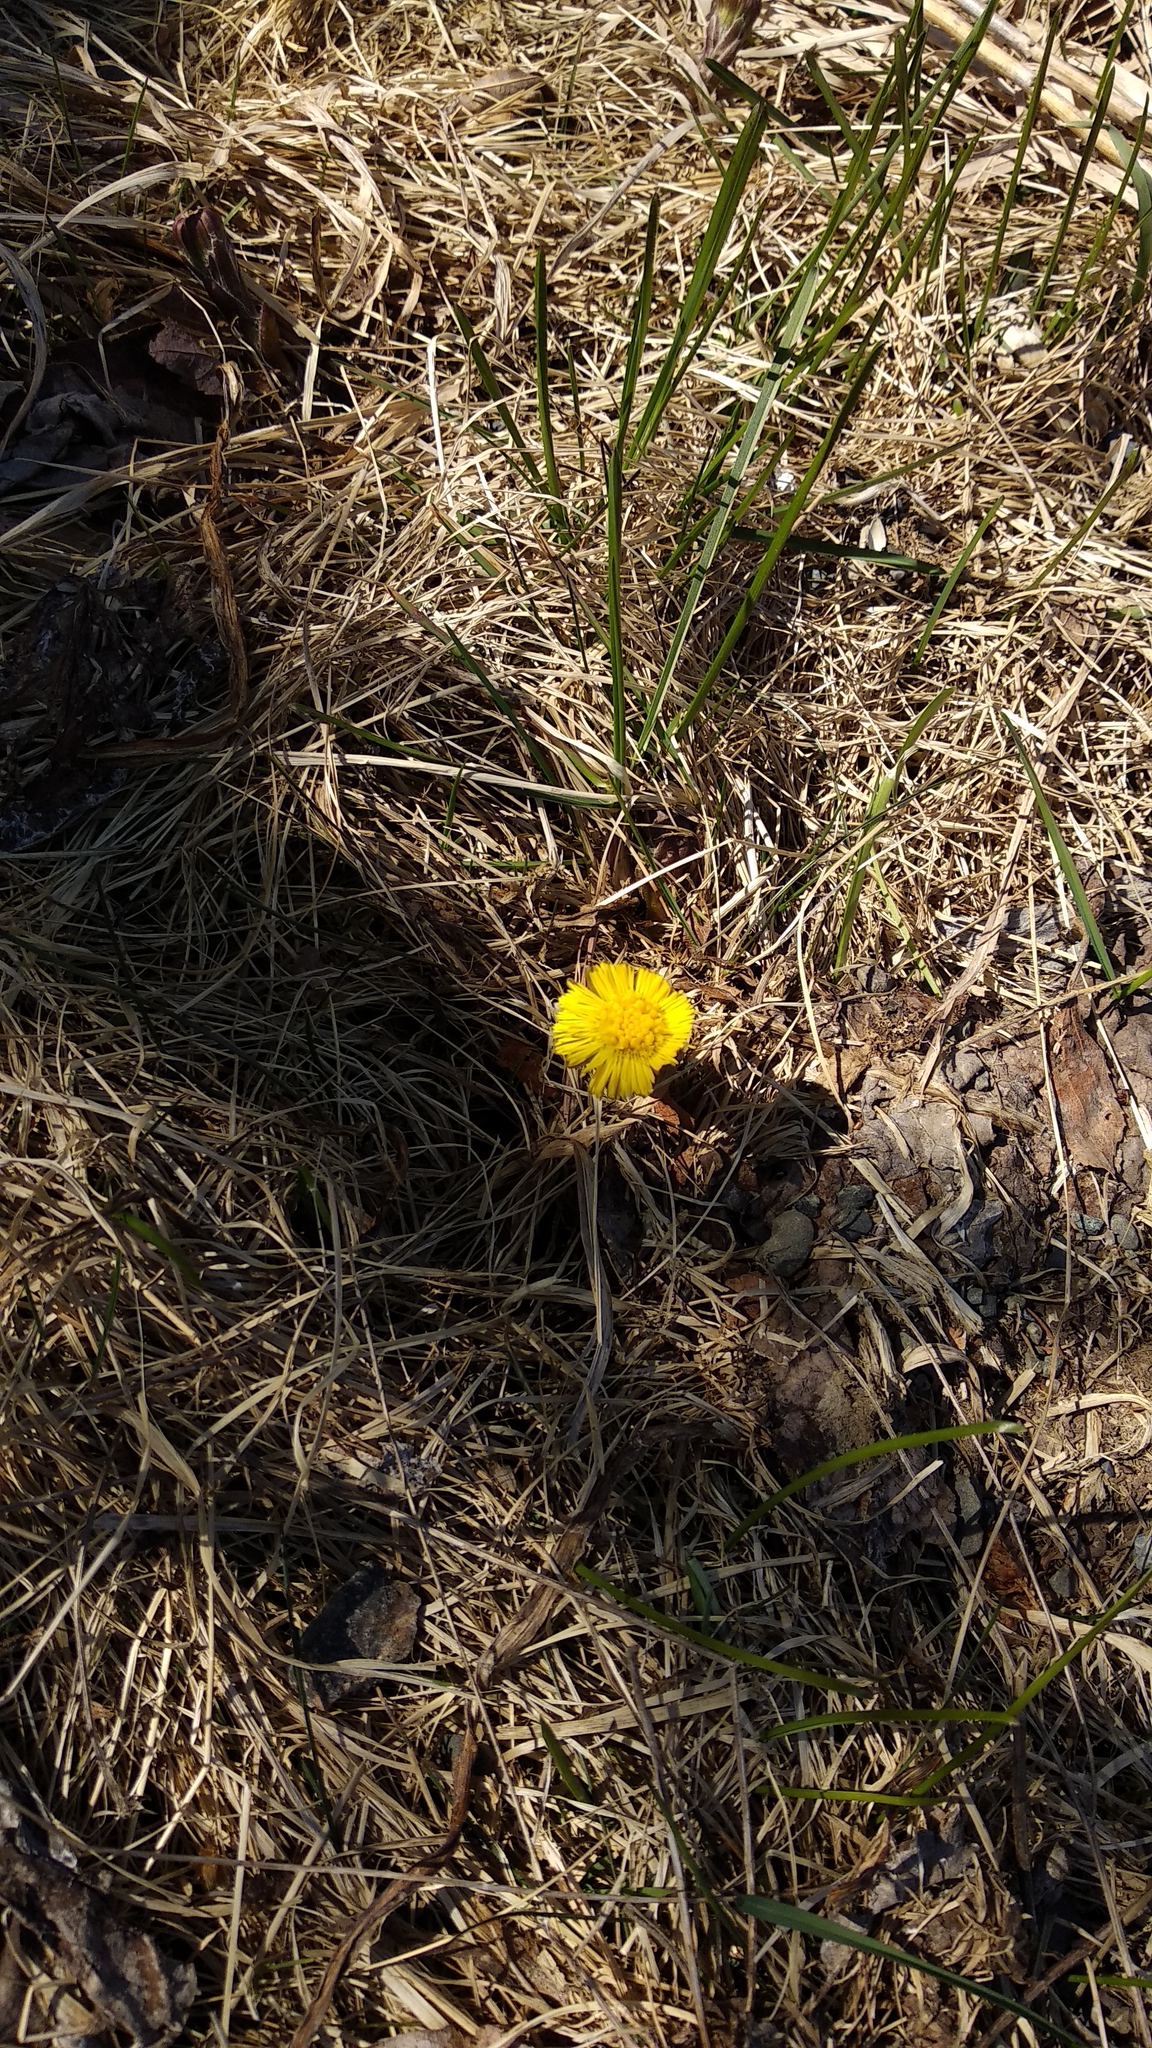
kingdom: Plantae
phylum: Tracheophyta
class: Magnoliopsida
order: Asterales
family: Asteraceae
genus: Tussilago
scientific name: Tussilago farfara
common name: Coltsfoot
